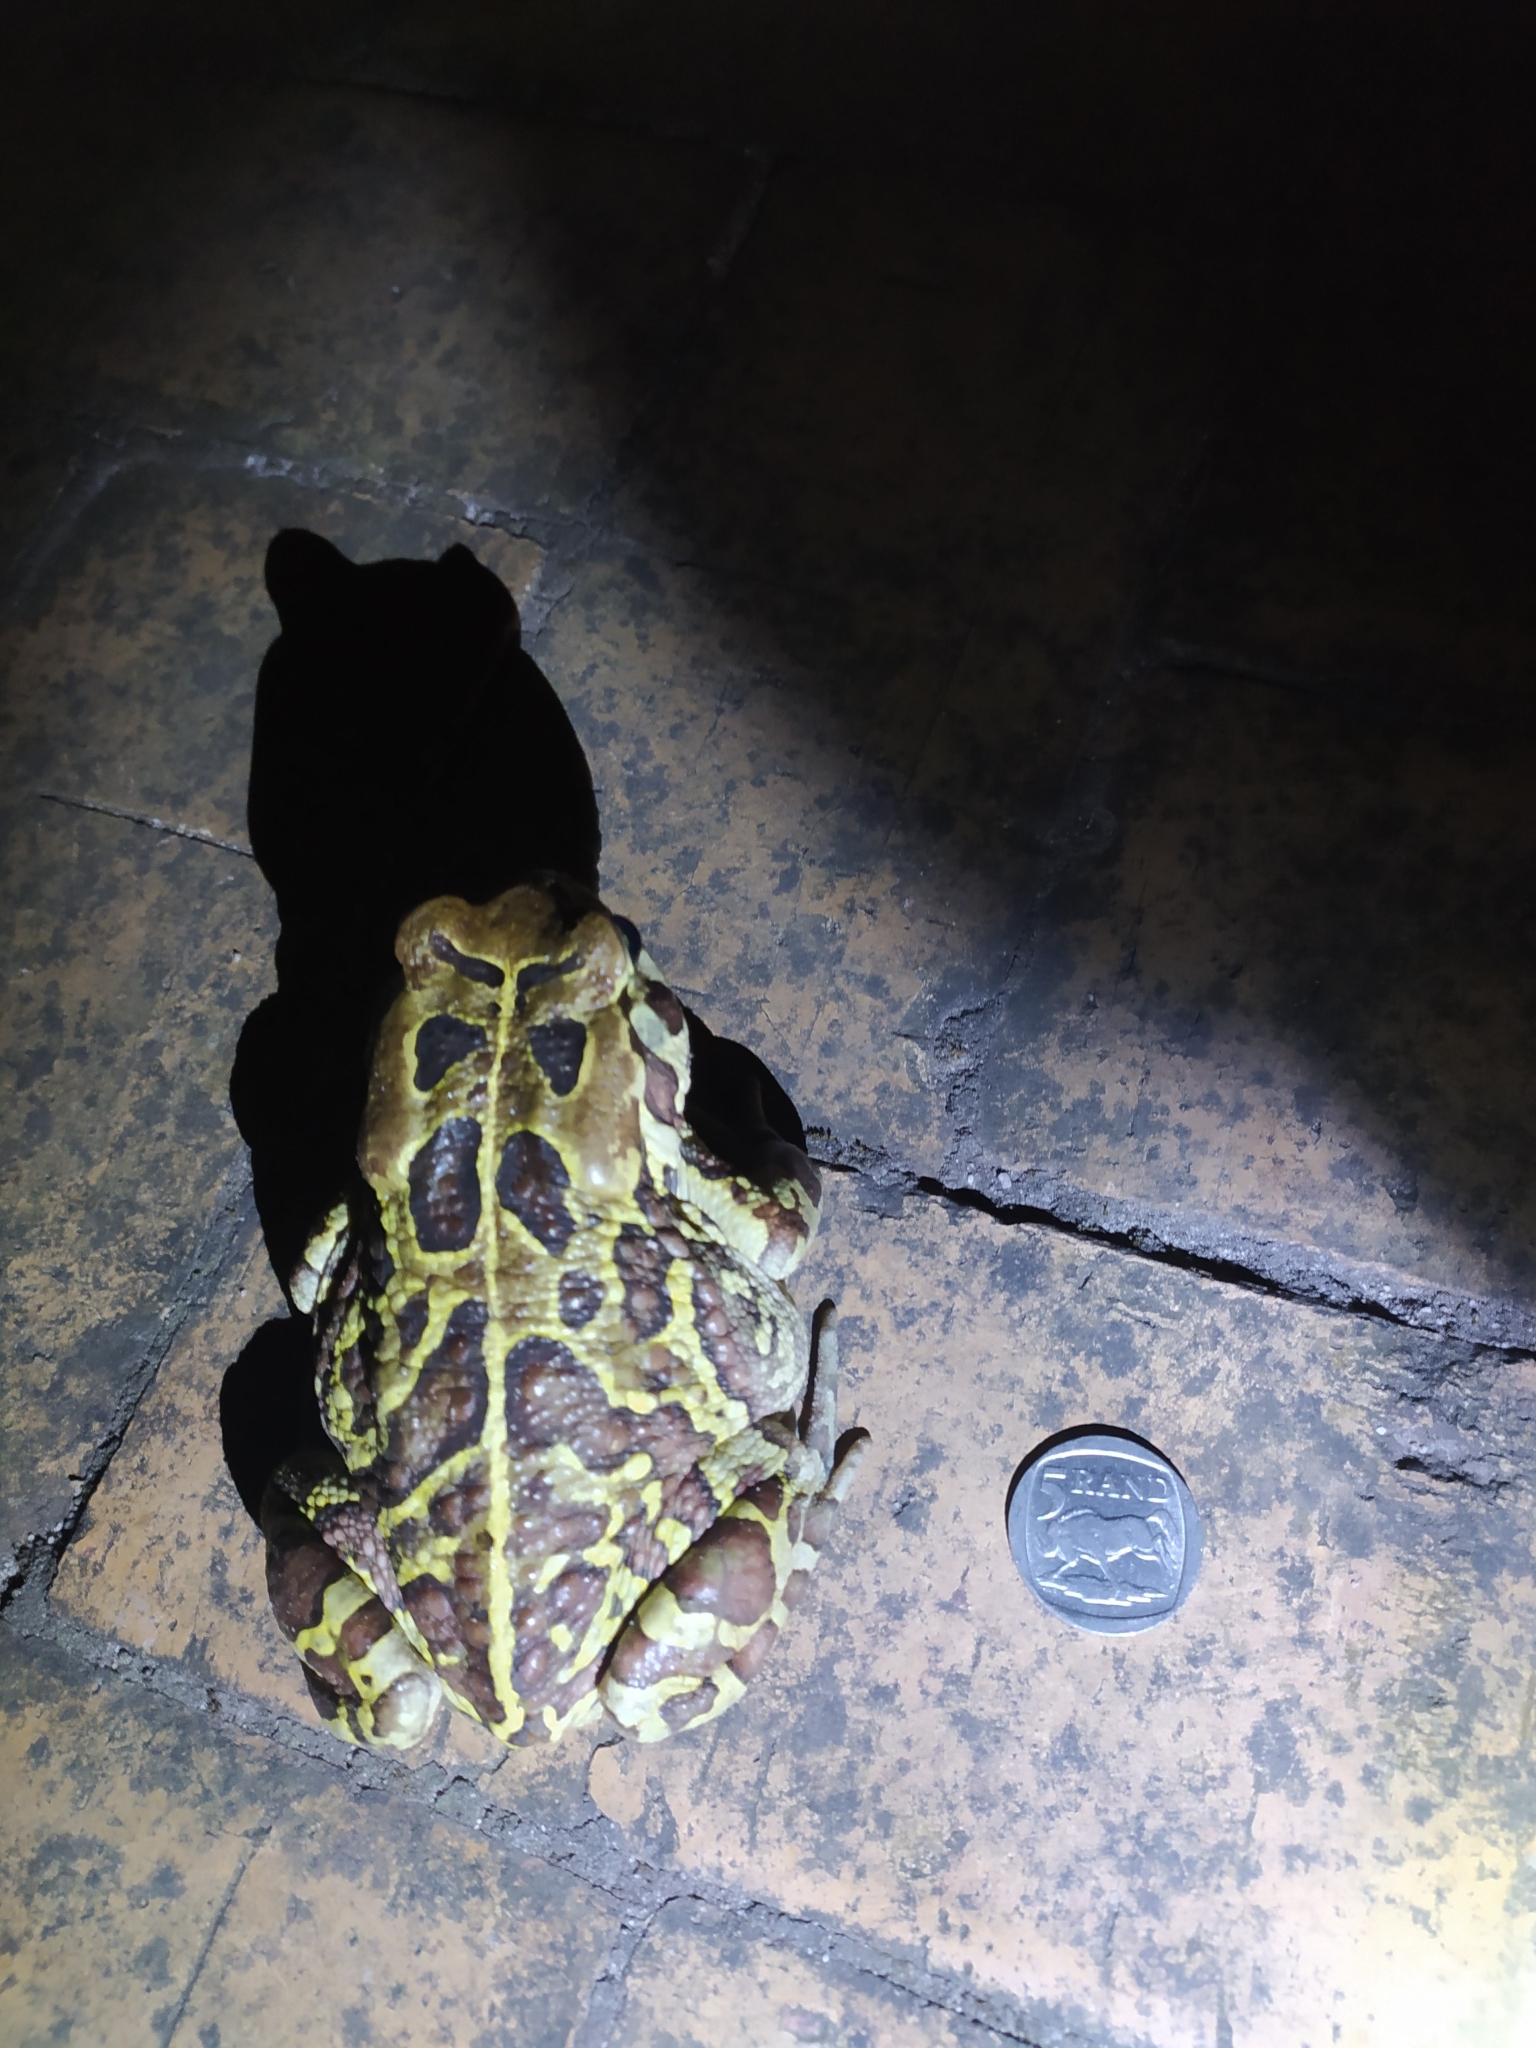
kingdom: Animalia
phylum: Chordata
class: Amphibia
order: Anura
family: Bufonidae
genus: Sclerophrys
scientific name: Sclerophrys pantherina
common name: Panther toad
